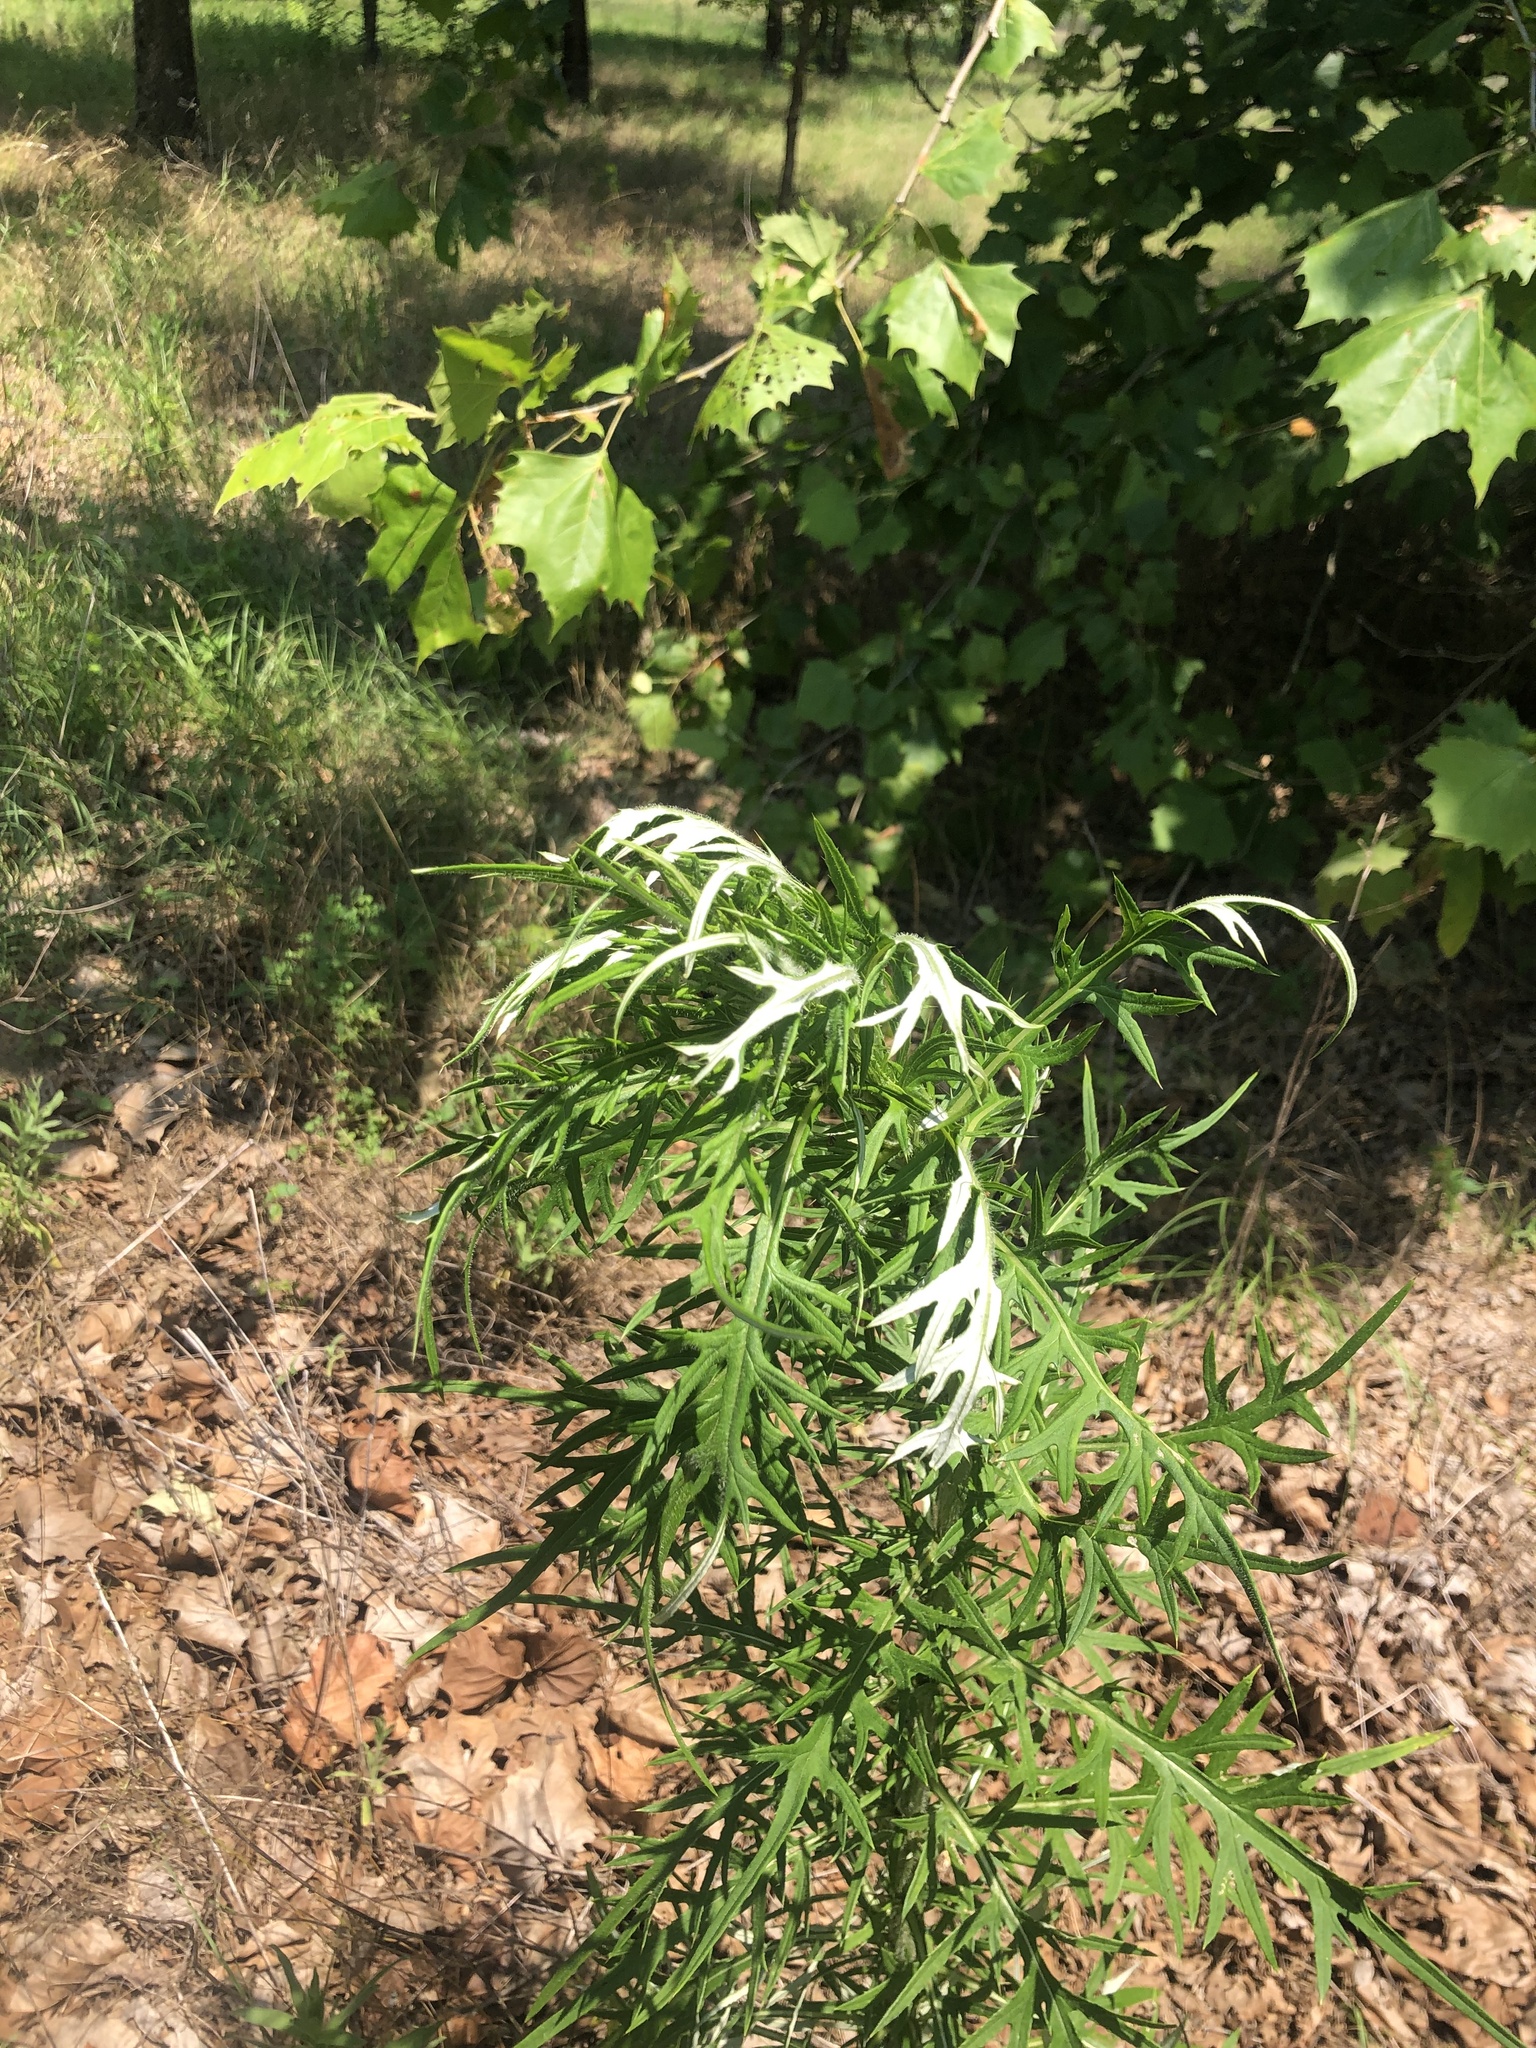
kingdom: Plantae
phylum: Tracheophyta
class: Magnoliopsida
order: Asterales
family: Asteraceae
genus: Cirsium
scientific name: Cirsium discolor
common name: Field thistle
